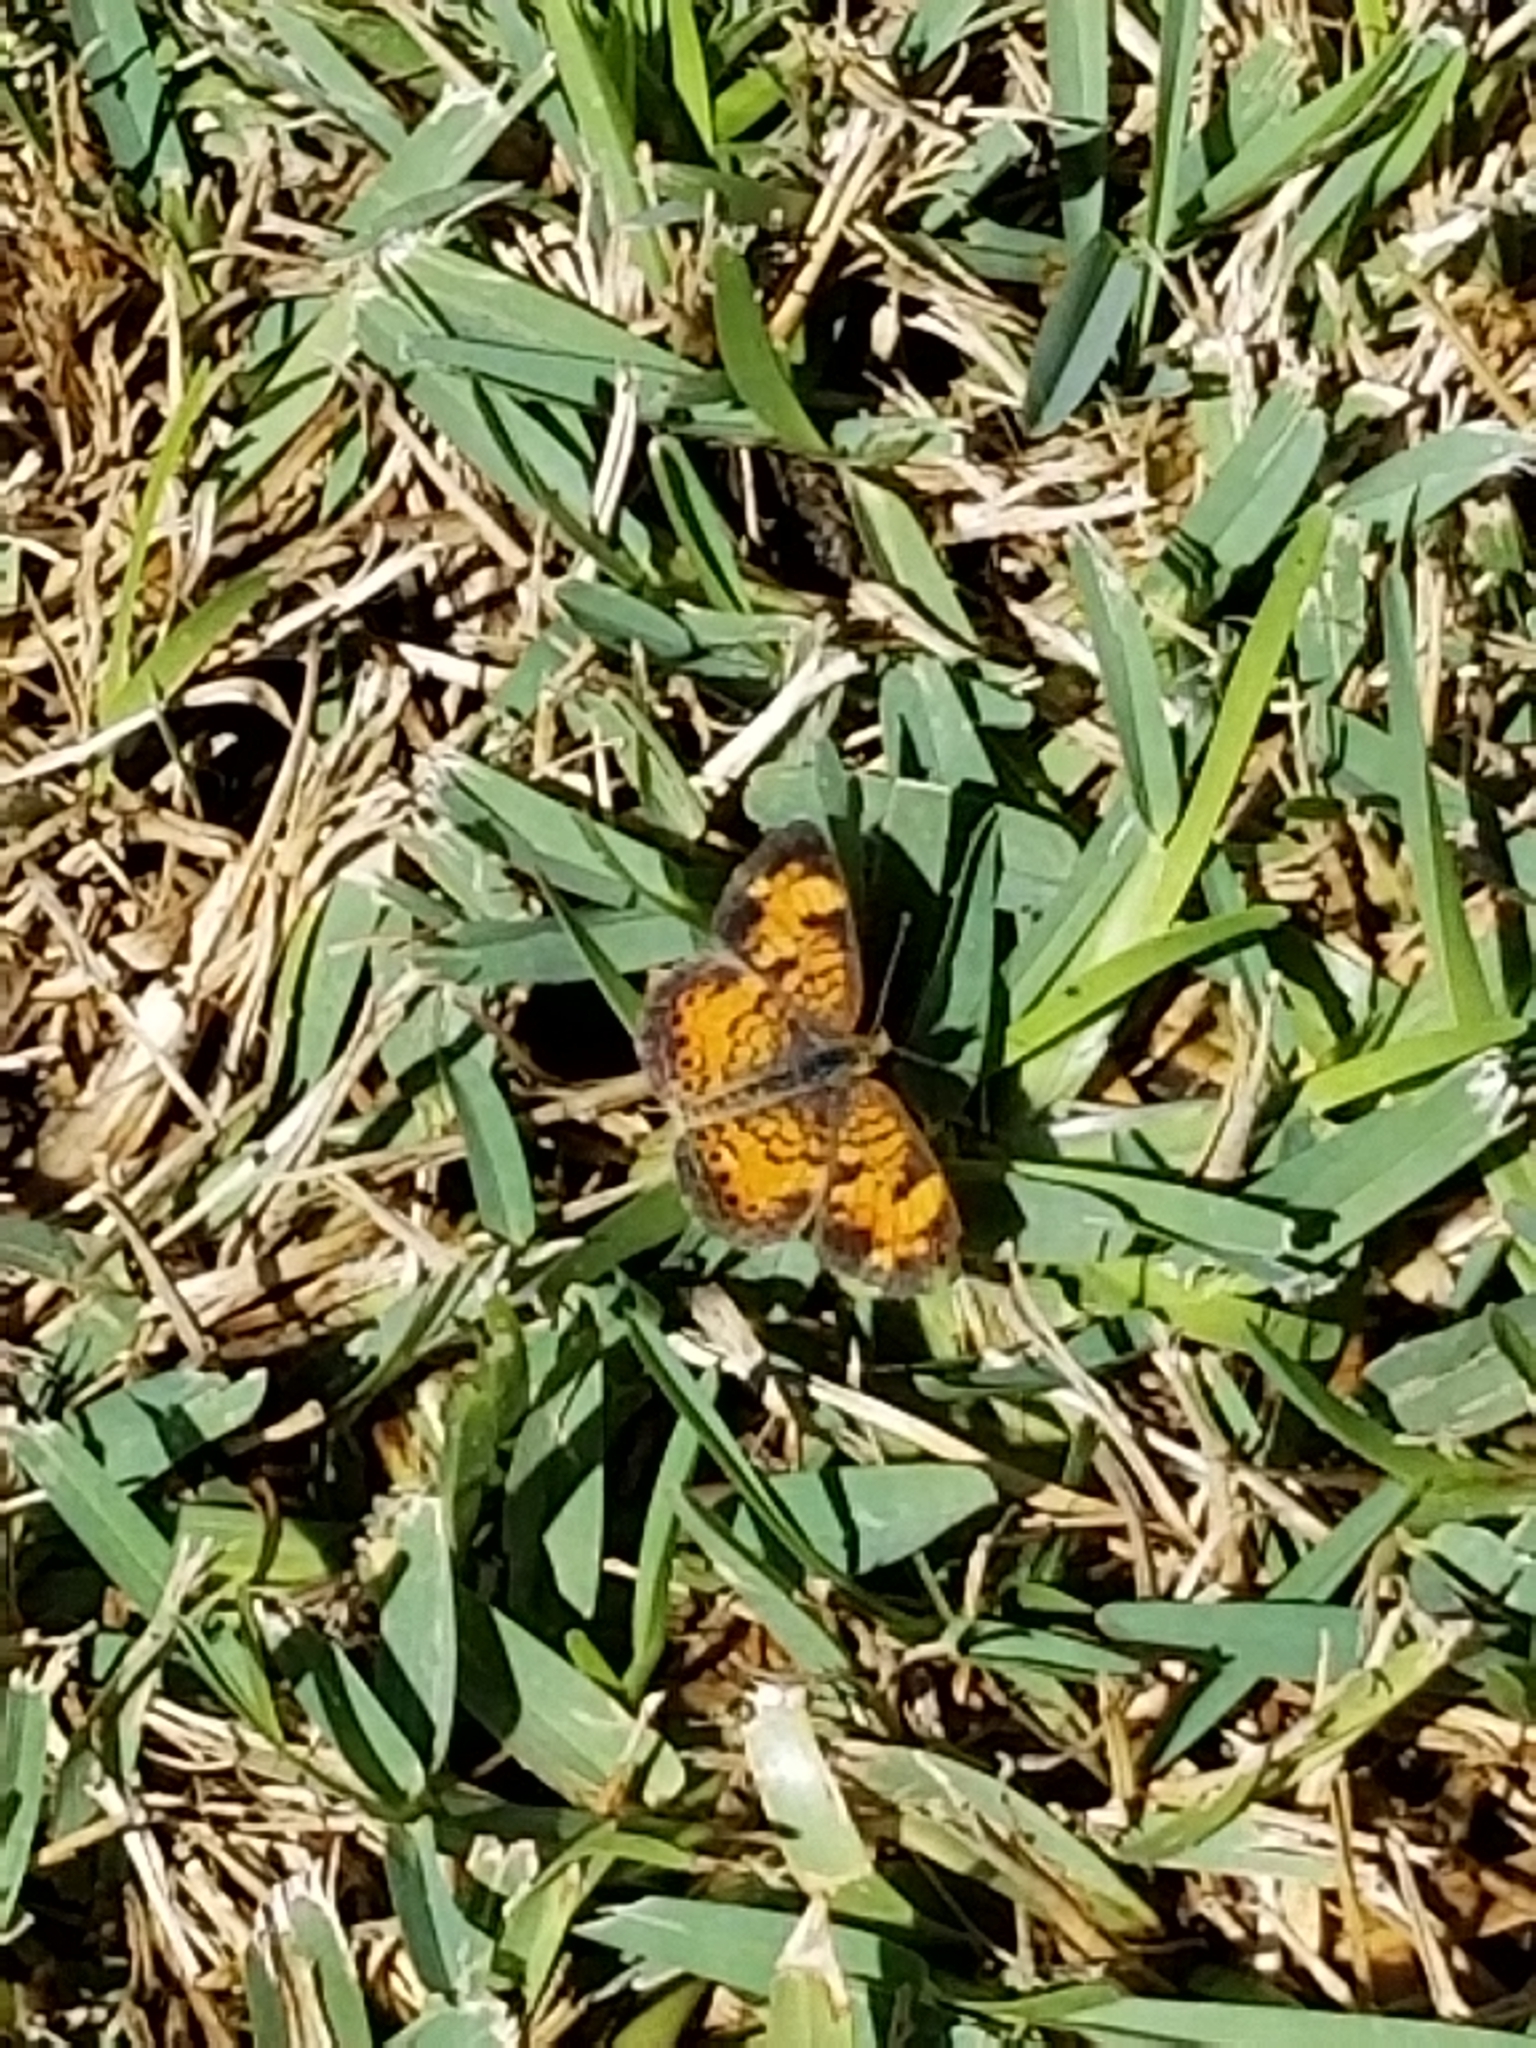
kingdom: Animalia
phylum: Arthropoda
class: Insecta
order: Lepidoptera
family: Nymphalidae
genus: Phyciodes
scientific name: Phyciodes tharos
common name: Pearl crescent
